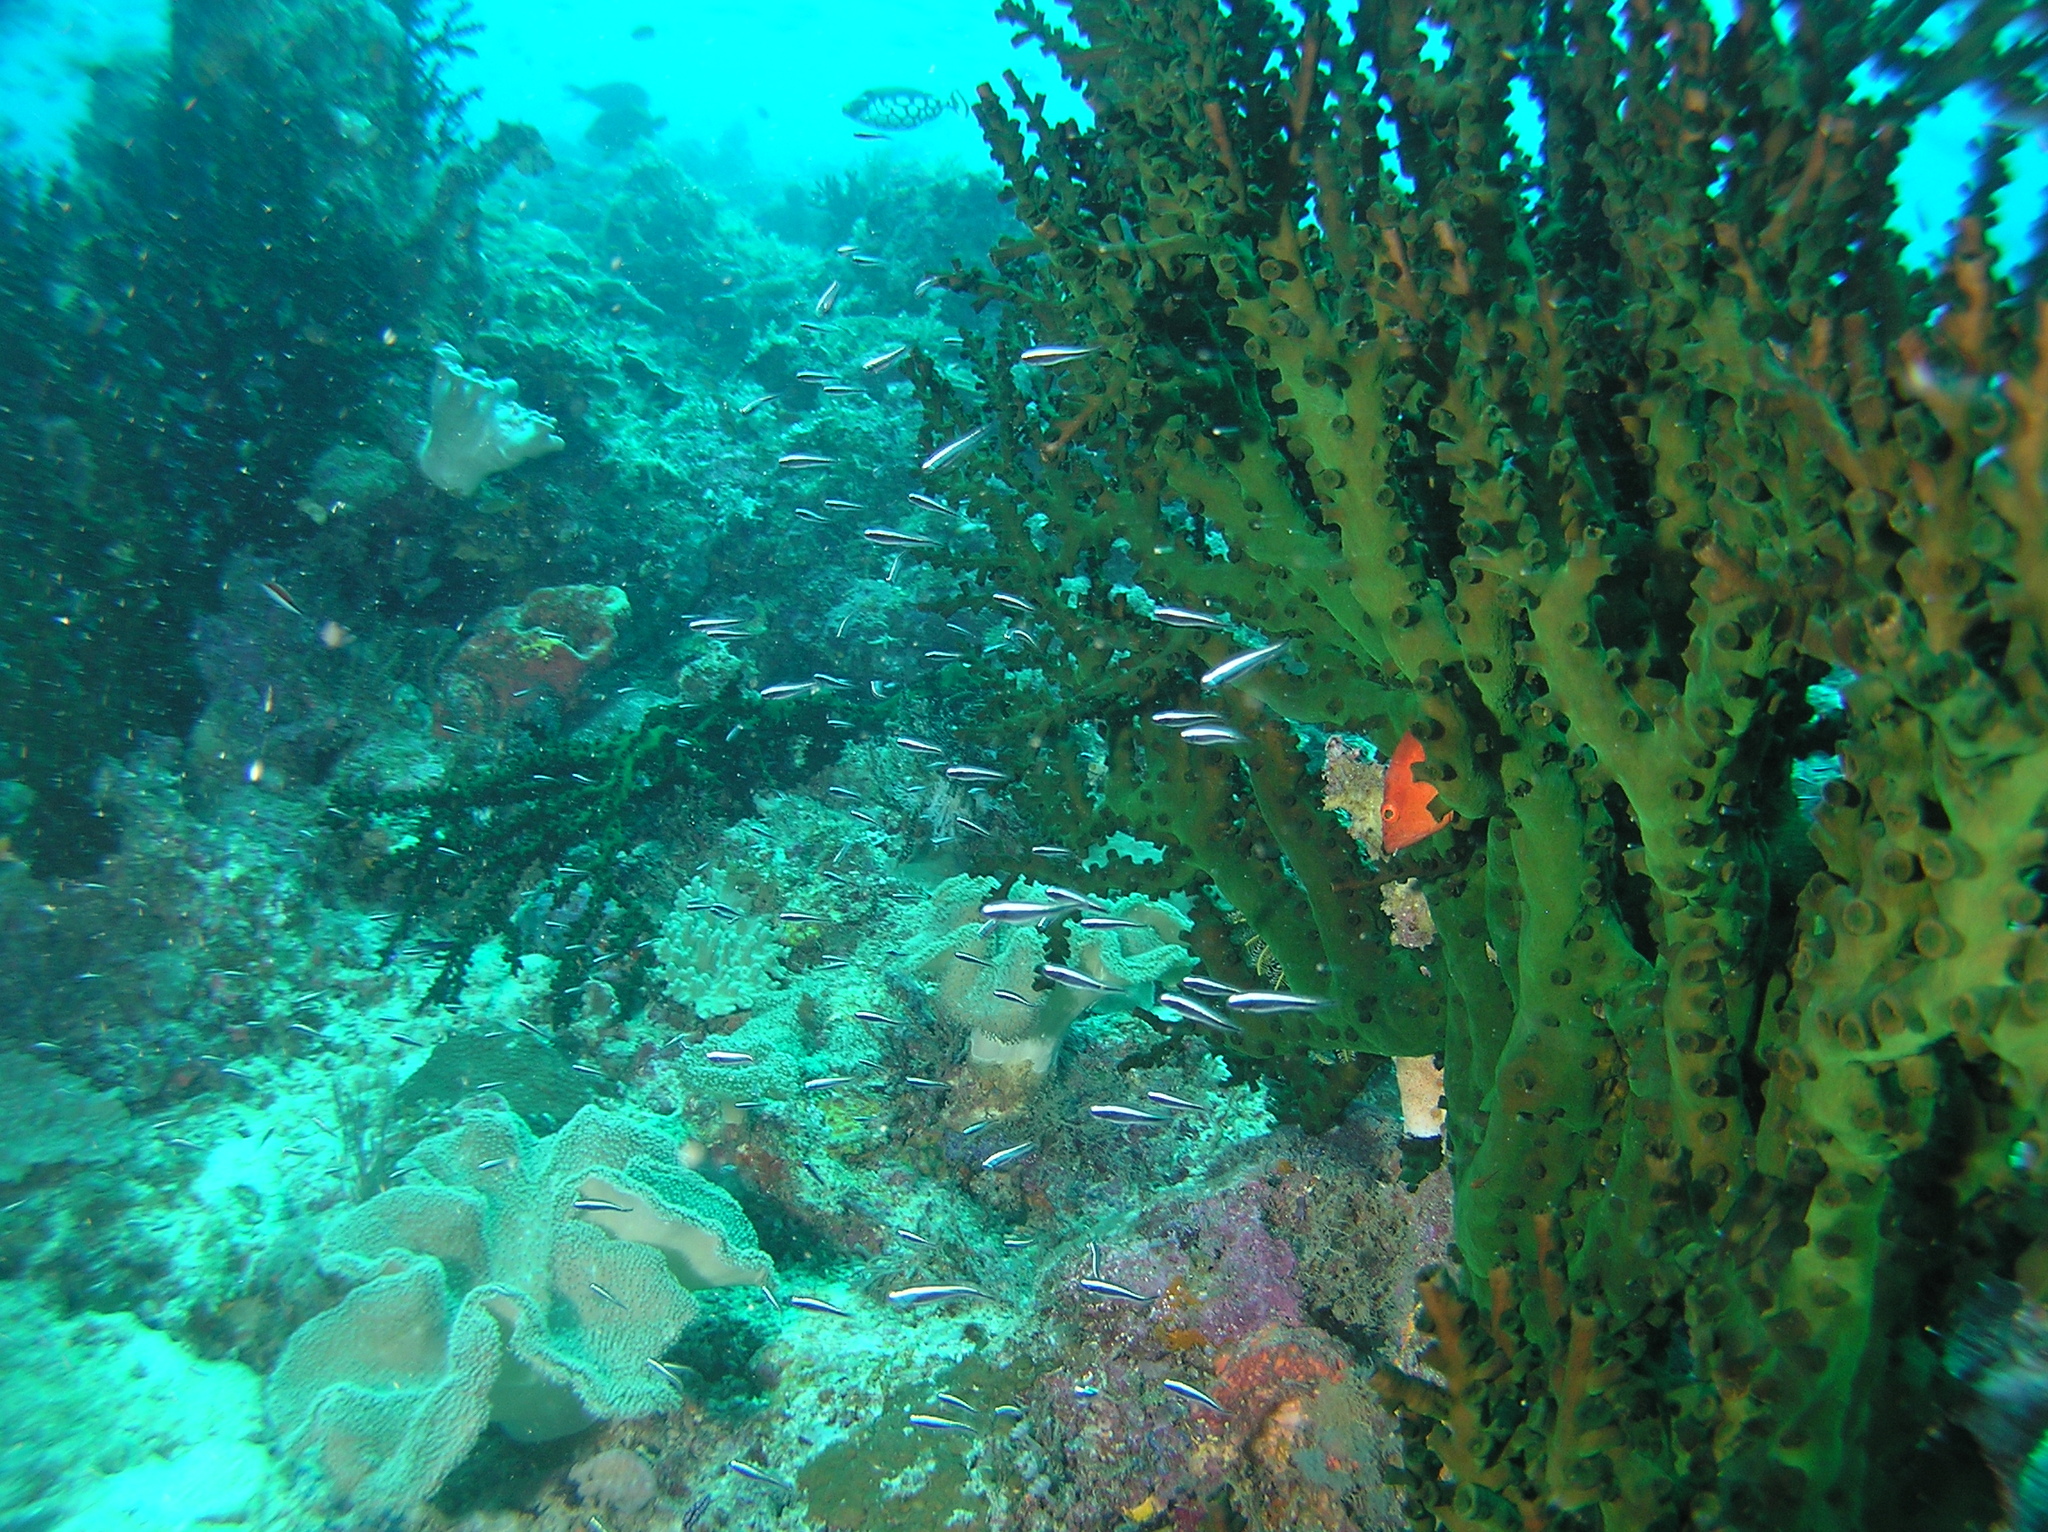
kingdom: Animalia
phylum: Chordata
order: Perciformes
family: Pholidichthyidae
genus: Pholidichthys
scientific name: Pholidichthys leucotaenia
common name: Convict blenny
